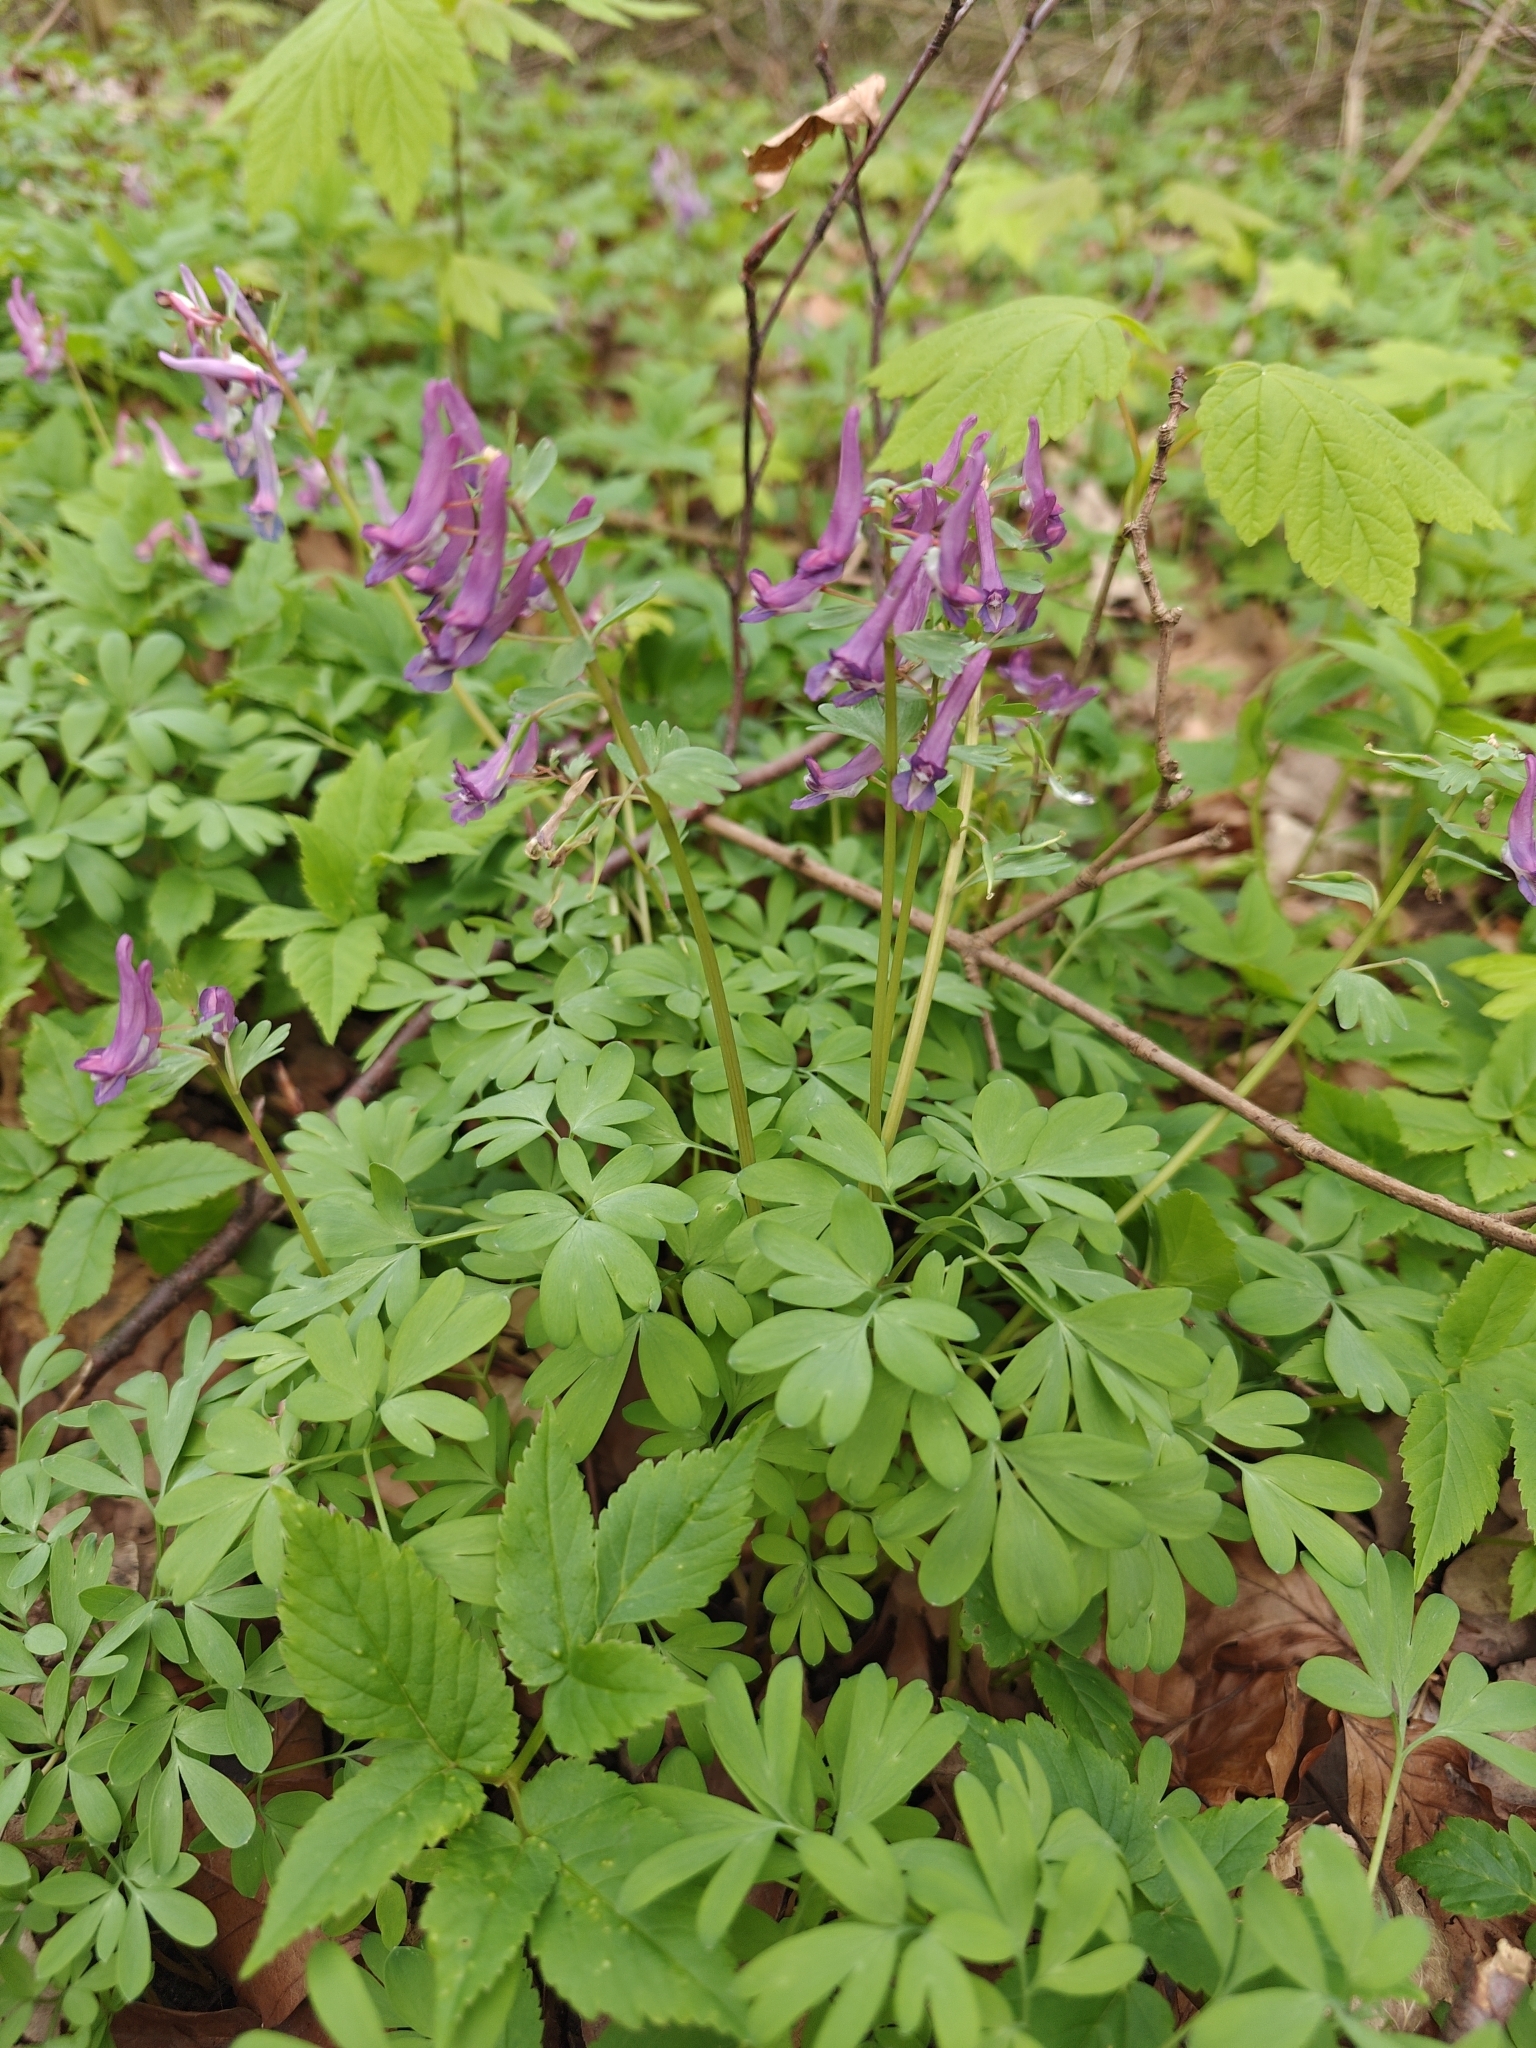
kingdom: Plantae
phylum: Tracheophyta
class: Magnoliopsida
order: Ranunculales
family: Papaveraceae
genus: Corydalis
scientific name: Corydalis solida
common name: Bird-in-a-bush
